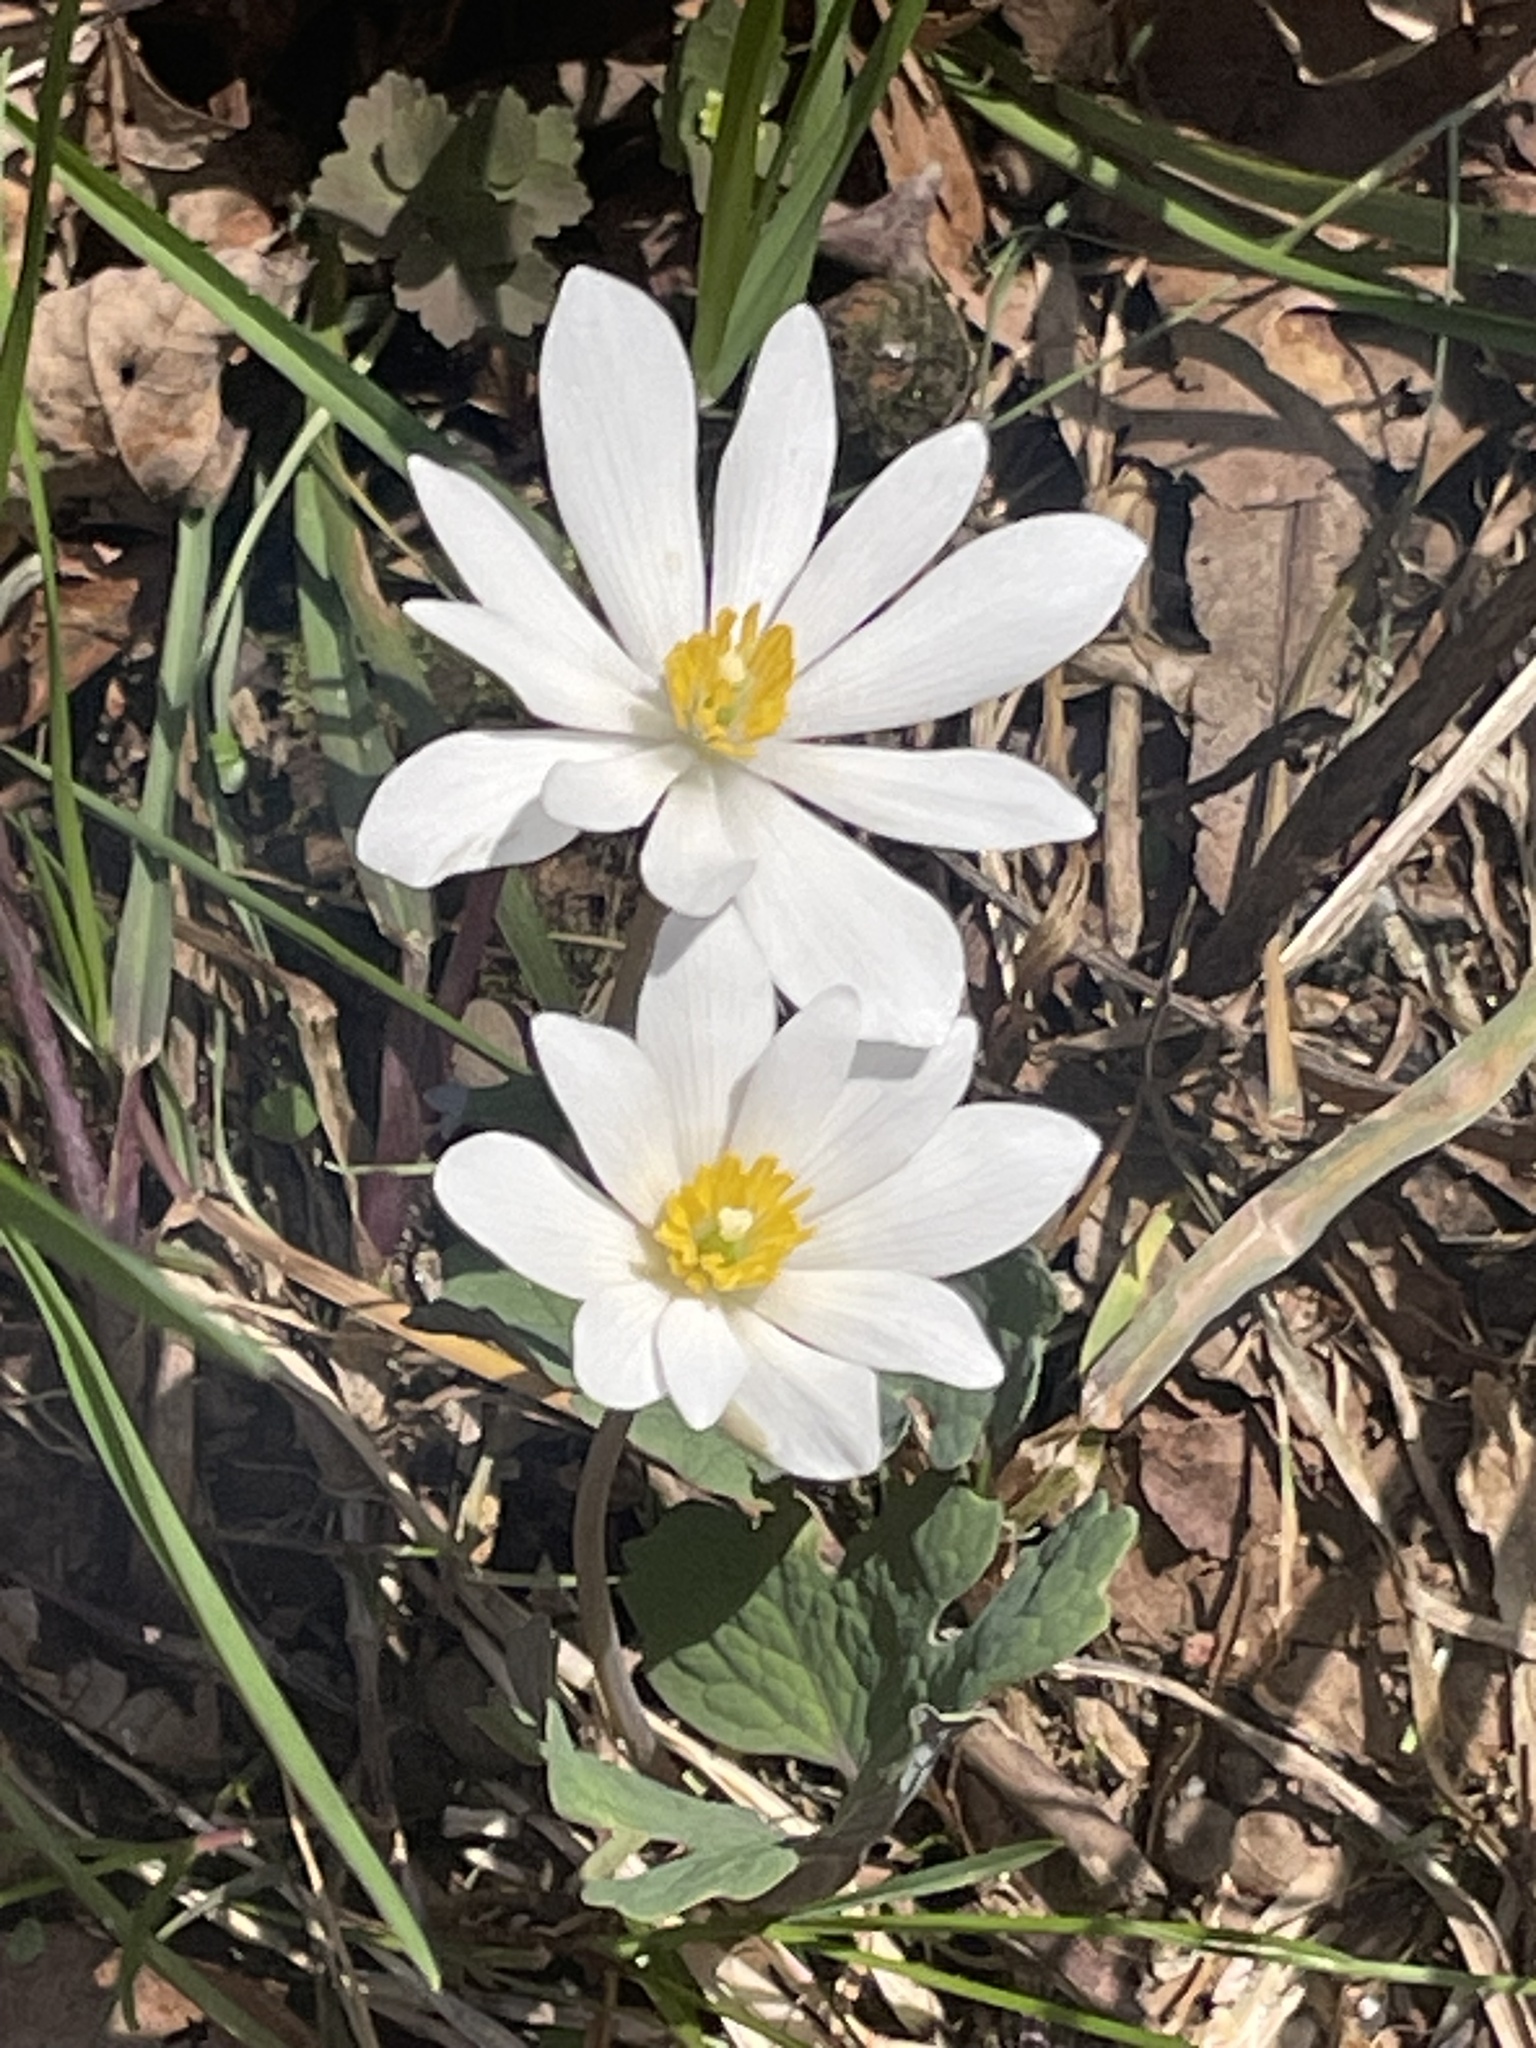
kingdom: Plantae
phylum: Tracheophyta
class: Magnoliopsida
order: Ranunculales
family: Papaveraceae
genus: Sanguinaria
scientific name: Sanguinaria canadensis
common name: Bloodroot
